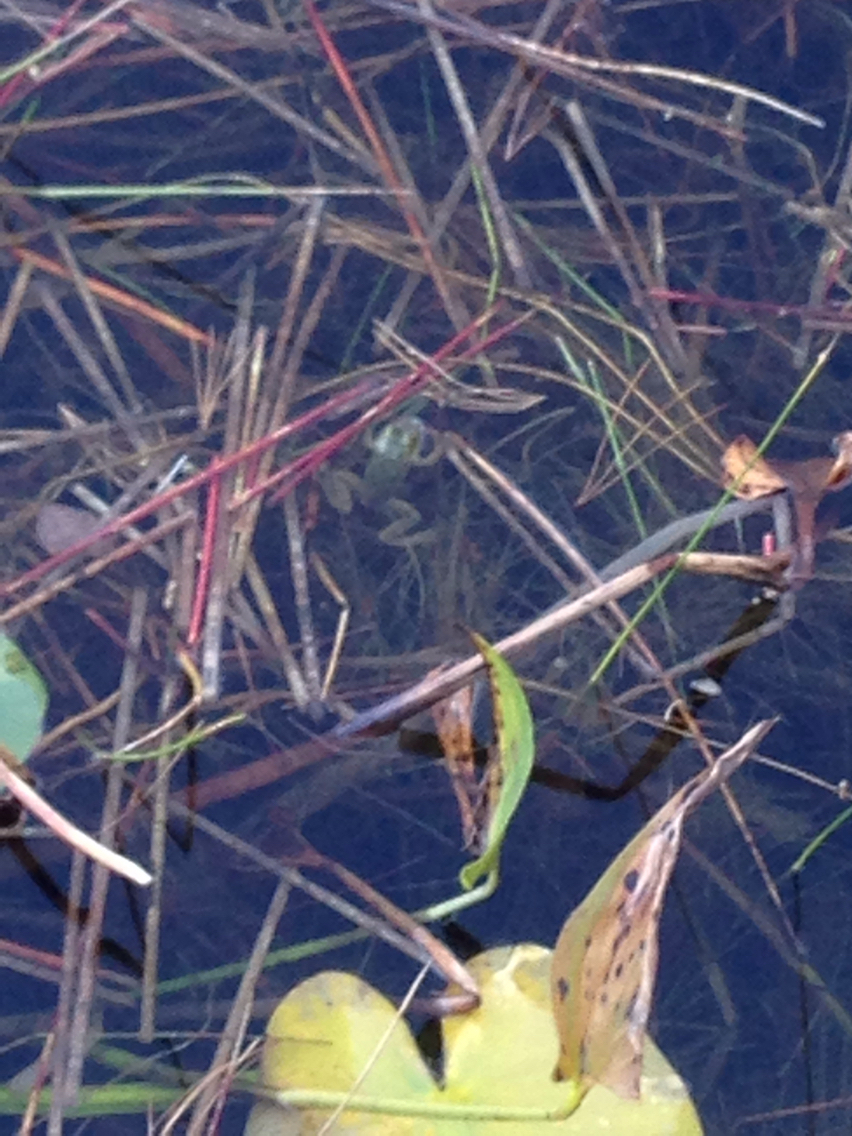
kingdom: Animalia
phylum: Chordata
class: Amphibia
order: Anura
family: Ranidae
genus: Lithobates
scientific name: Lithobates
